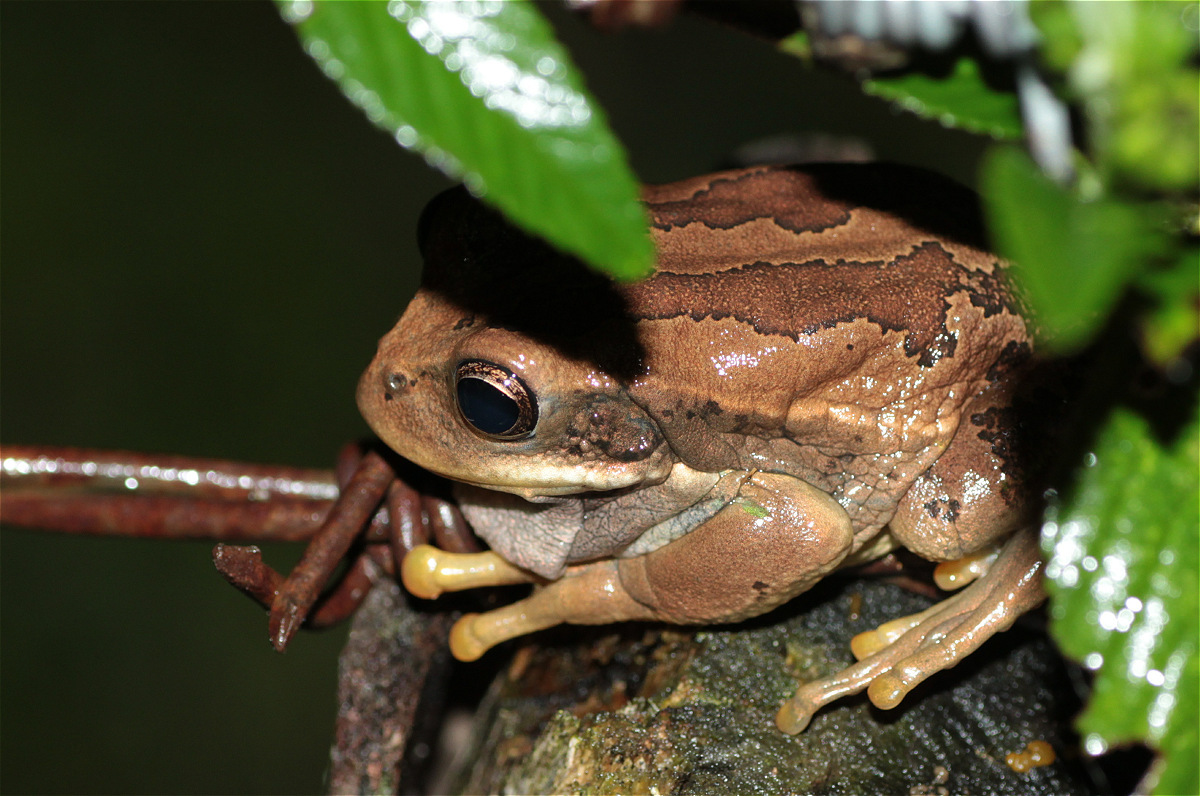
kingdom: Animalia
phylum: Chordata
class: Amphibia
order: Anura
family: Hemiphractidae
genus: Gastrotheca
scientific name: Gastrotheca cuencana
